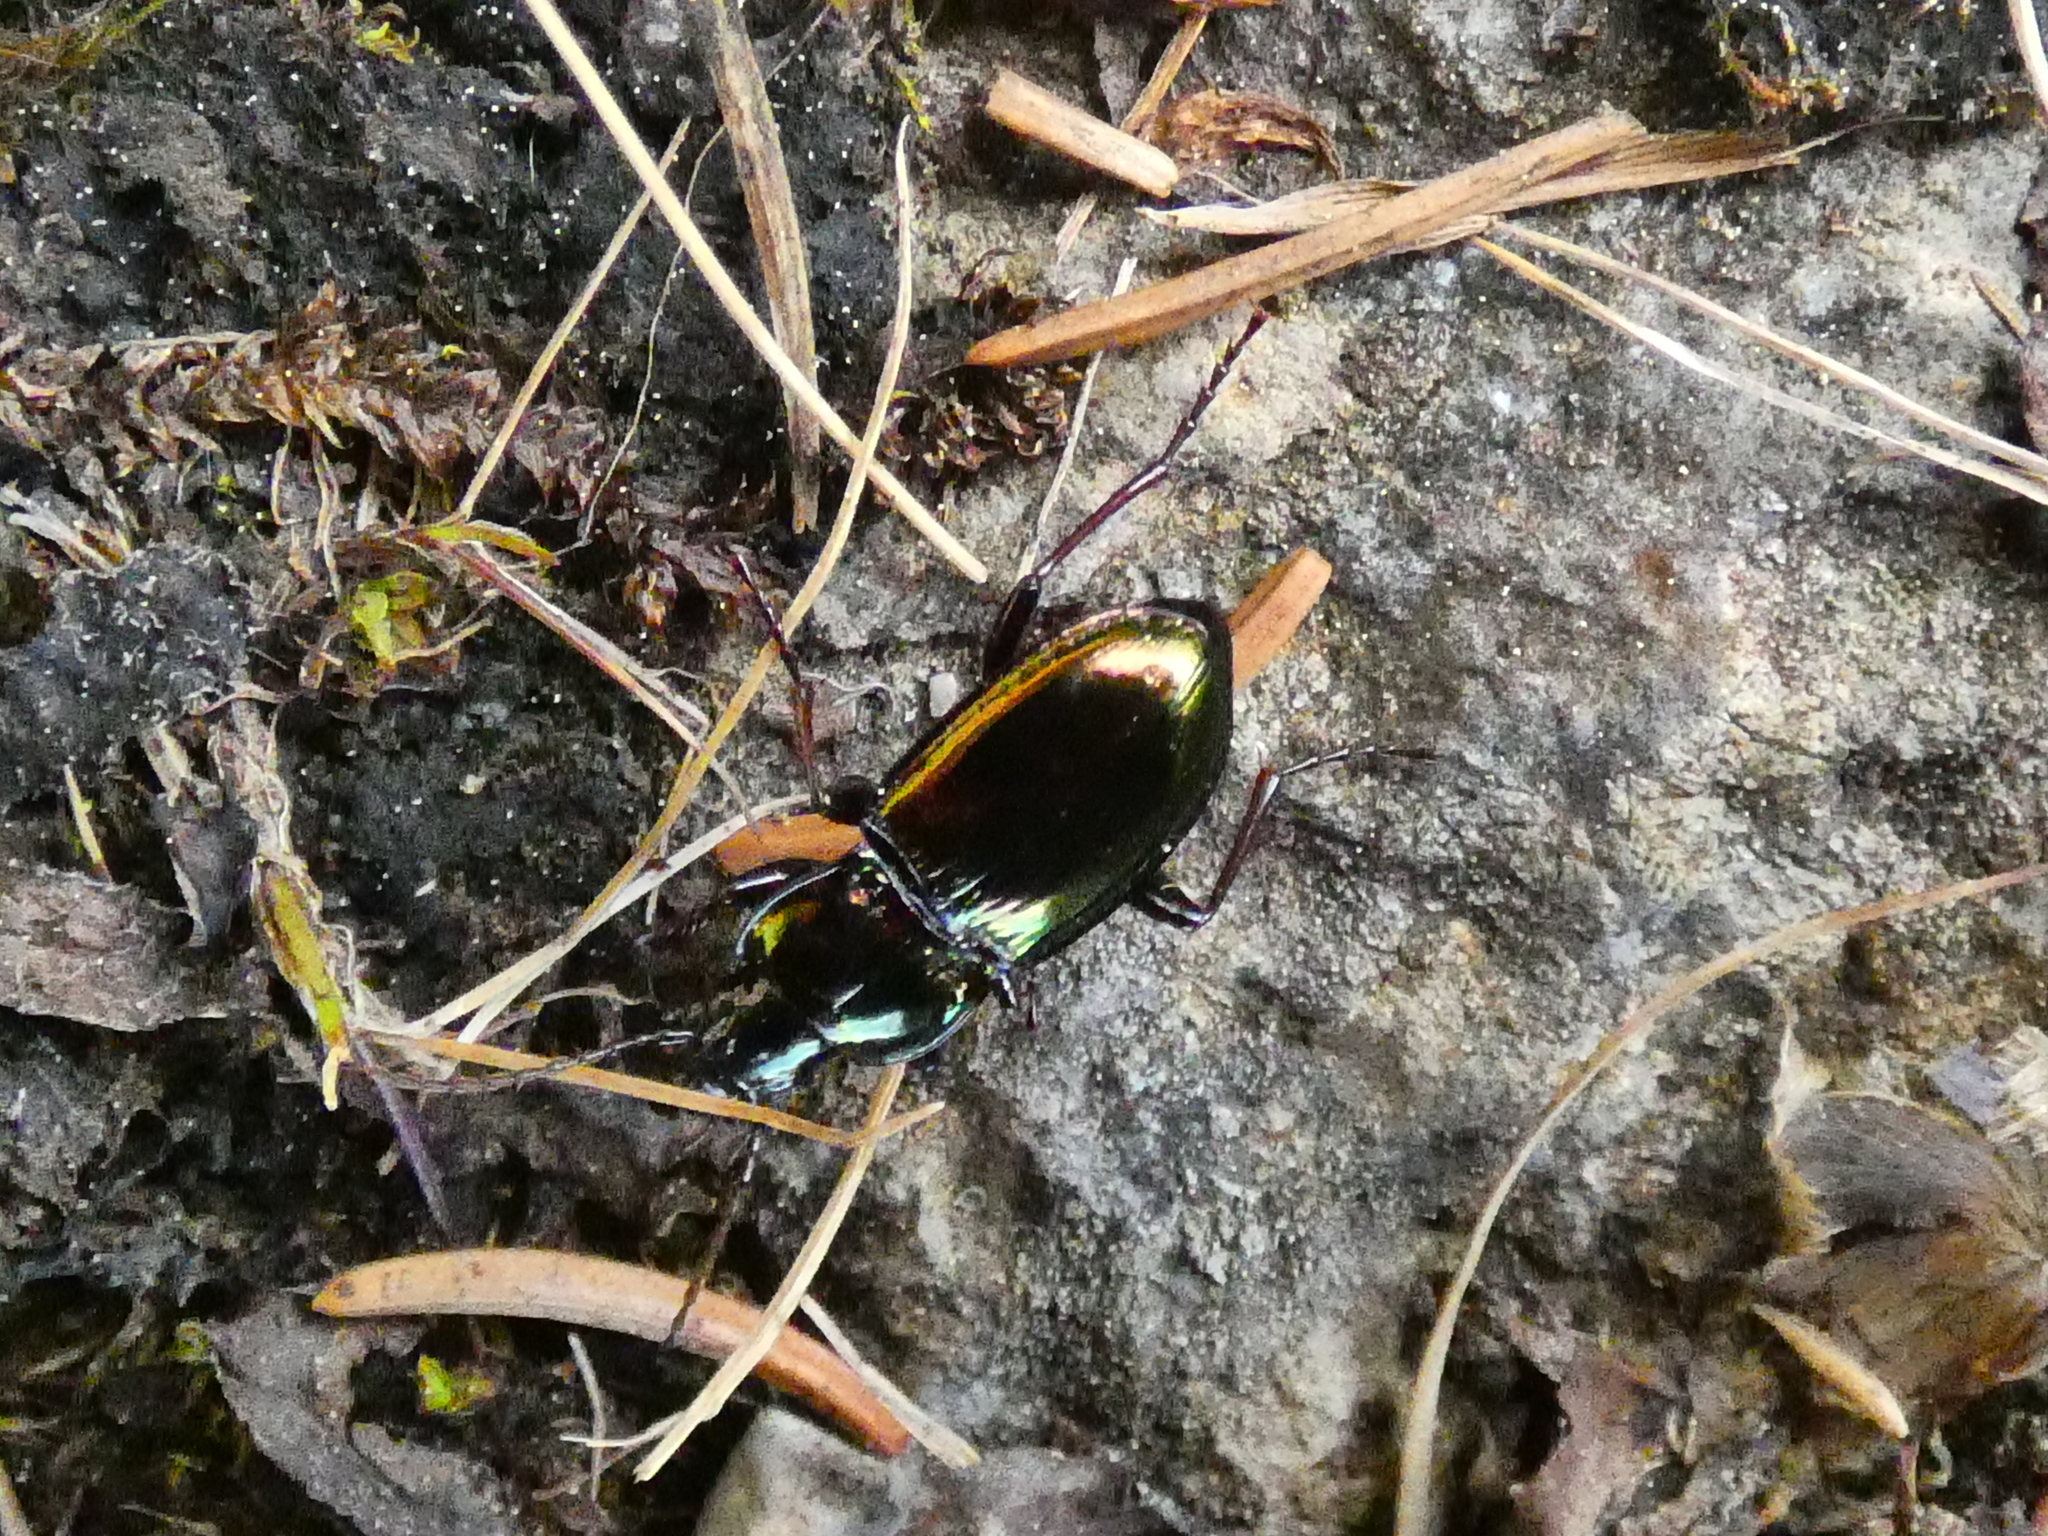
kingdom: Animalia
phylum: Arthropoda
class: Insecta
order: Coleoptera
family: Carabidae
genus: Pterostichus
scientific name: Pterostichus burmeisteri
